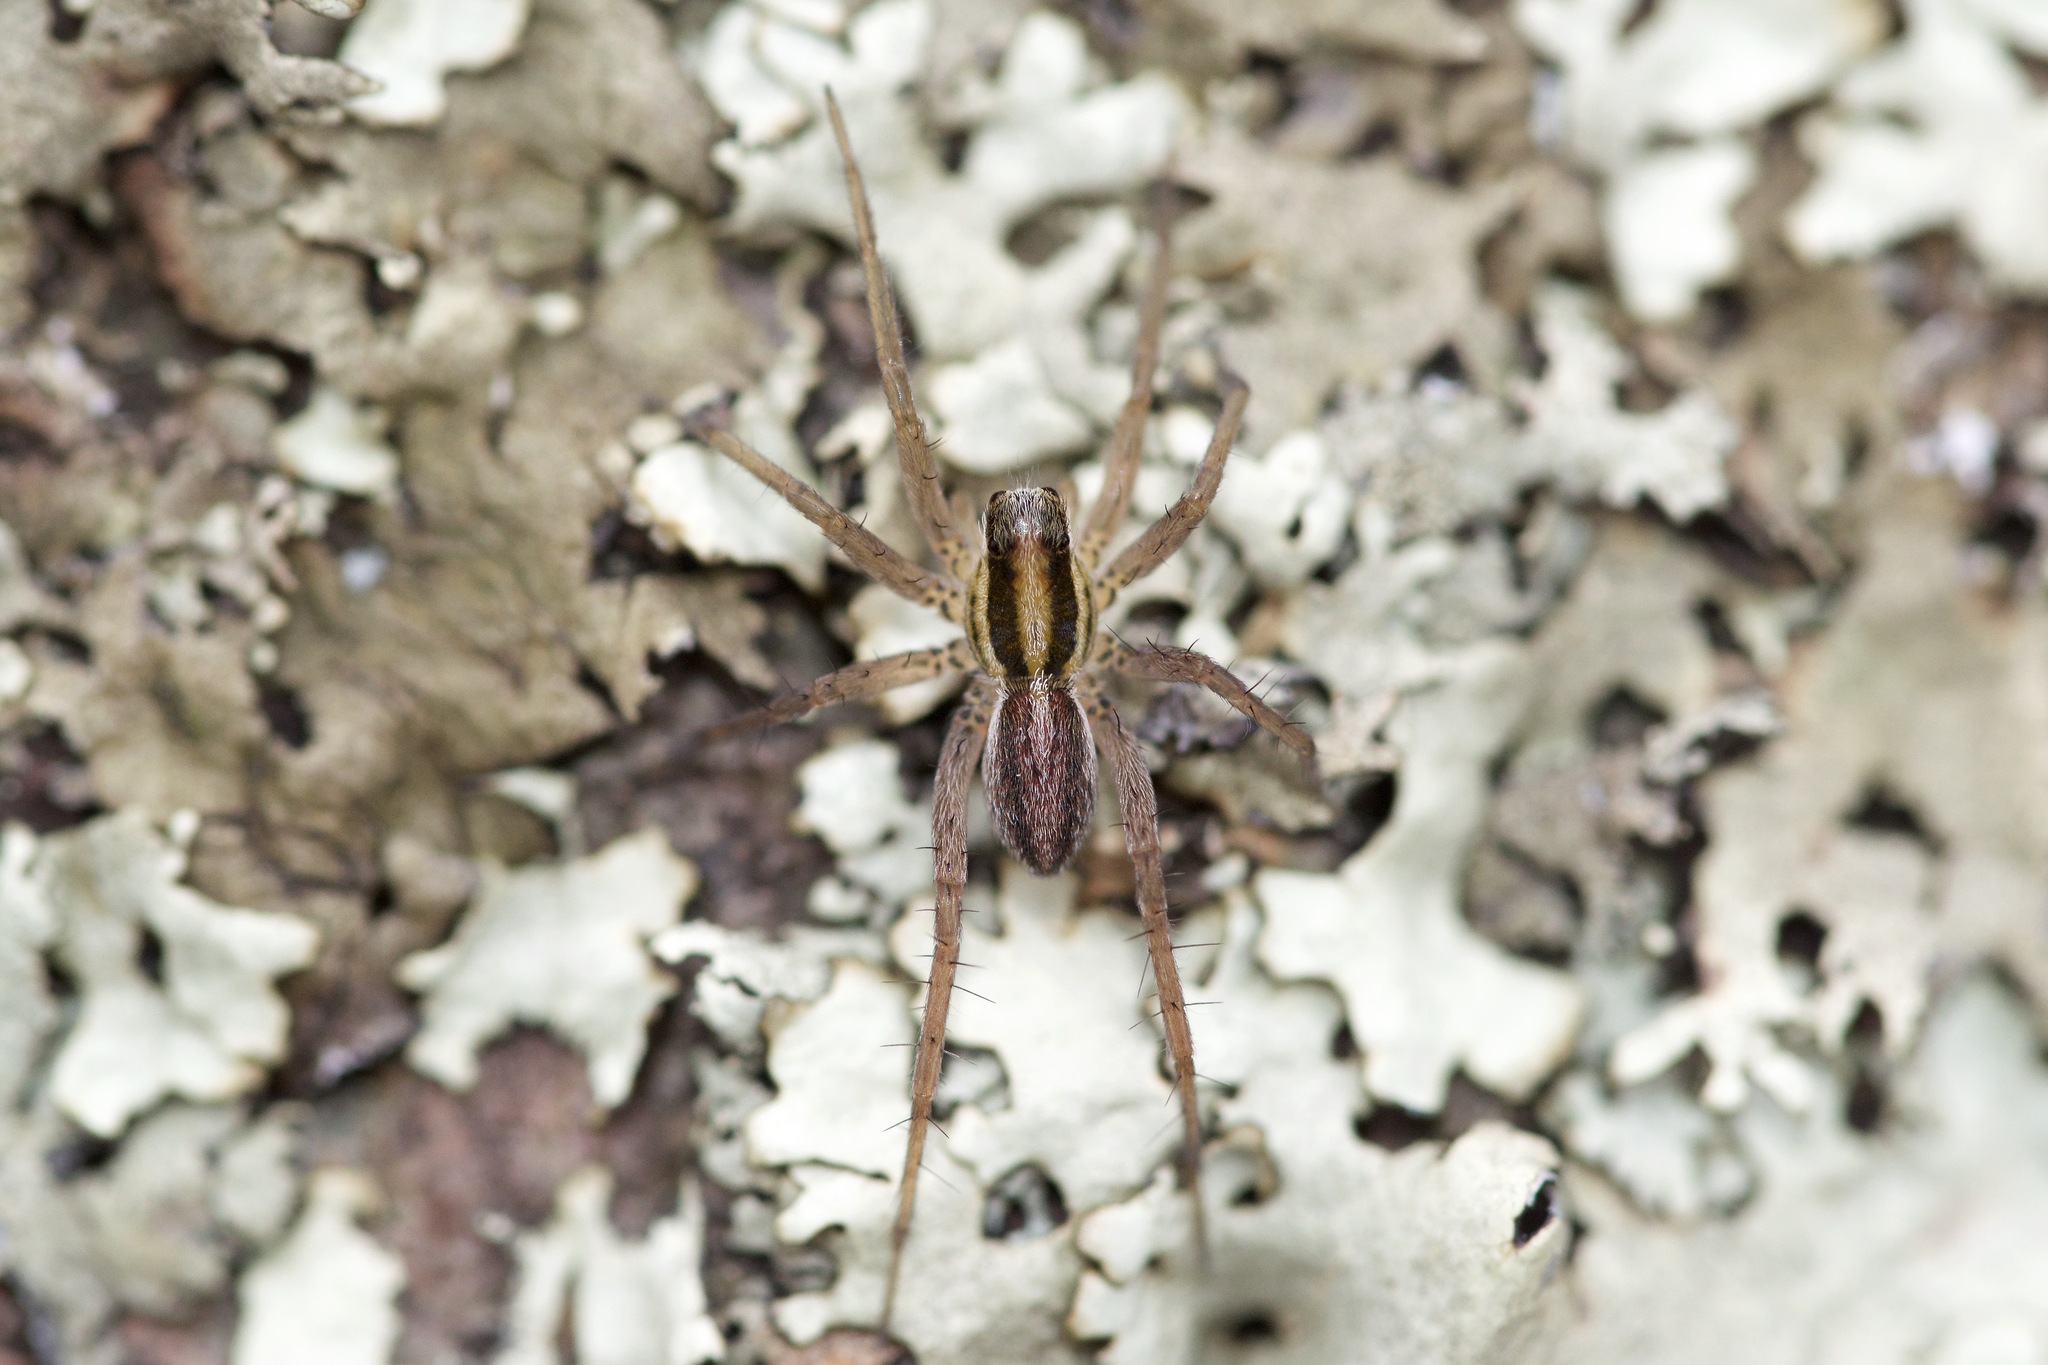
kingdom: Animalia
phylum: Arthropoda
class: Arachnida
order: Araneae
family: Lycosidae
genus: Pardosa
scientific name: Pardosa distincta
